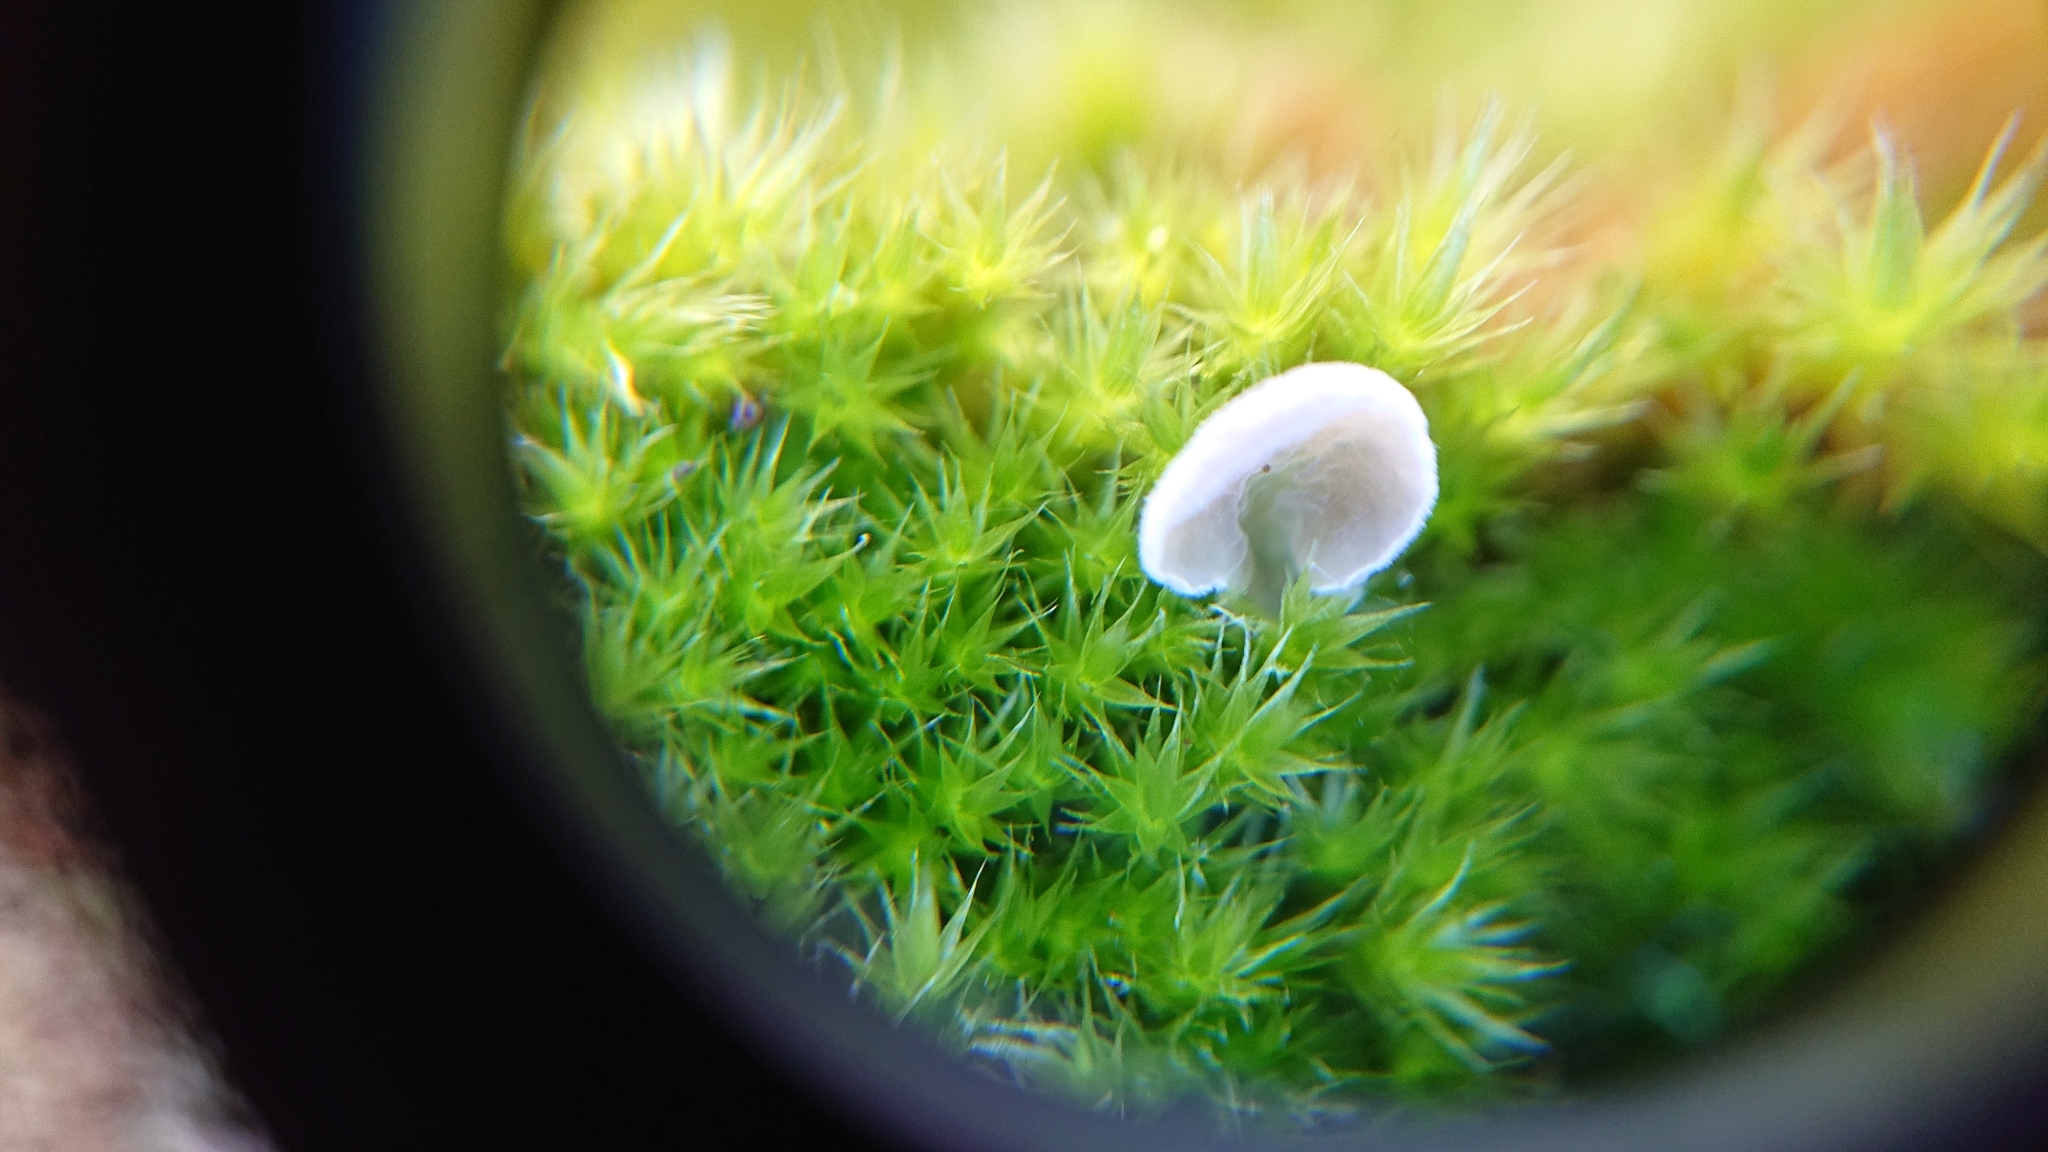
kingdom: Fungi
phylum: Basidiomycota
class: Agaricomycetes
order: Agaricales
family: Hygrophoraceae
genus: Arrhenia
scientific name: Arrhenia retiruga
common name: Small moss oysterling
